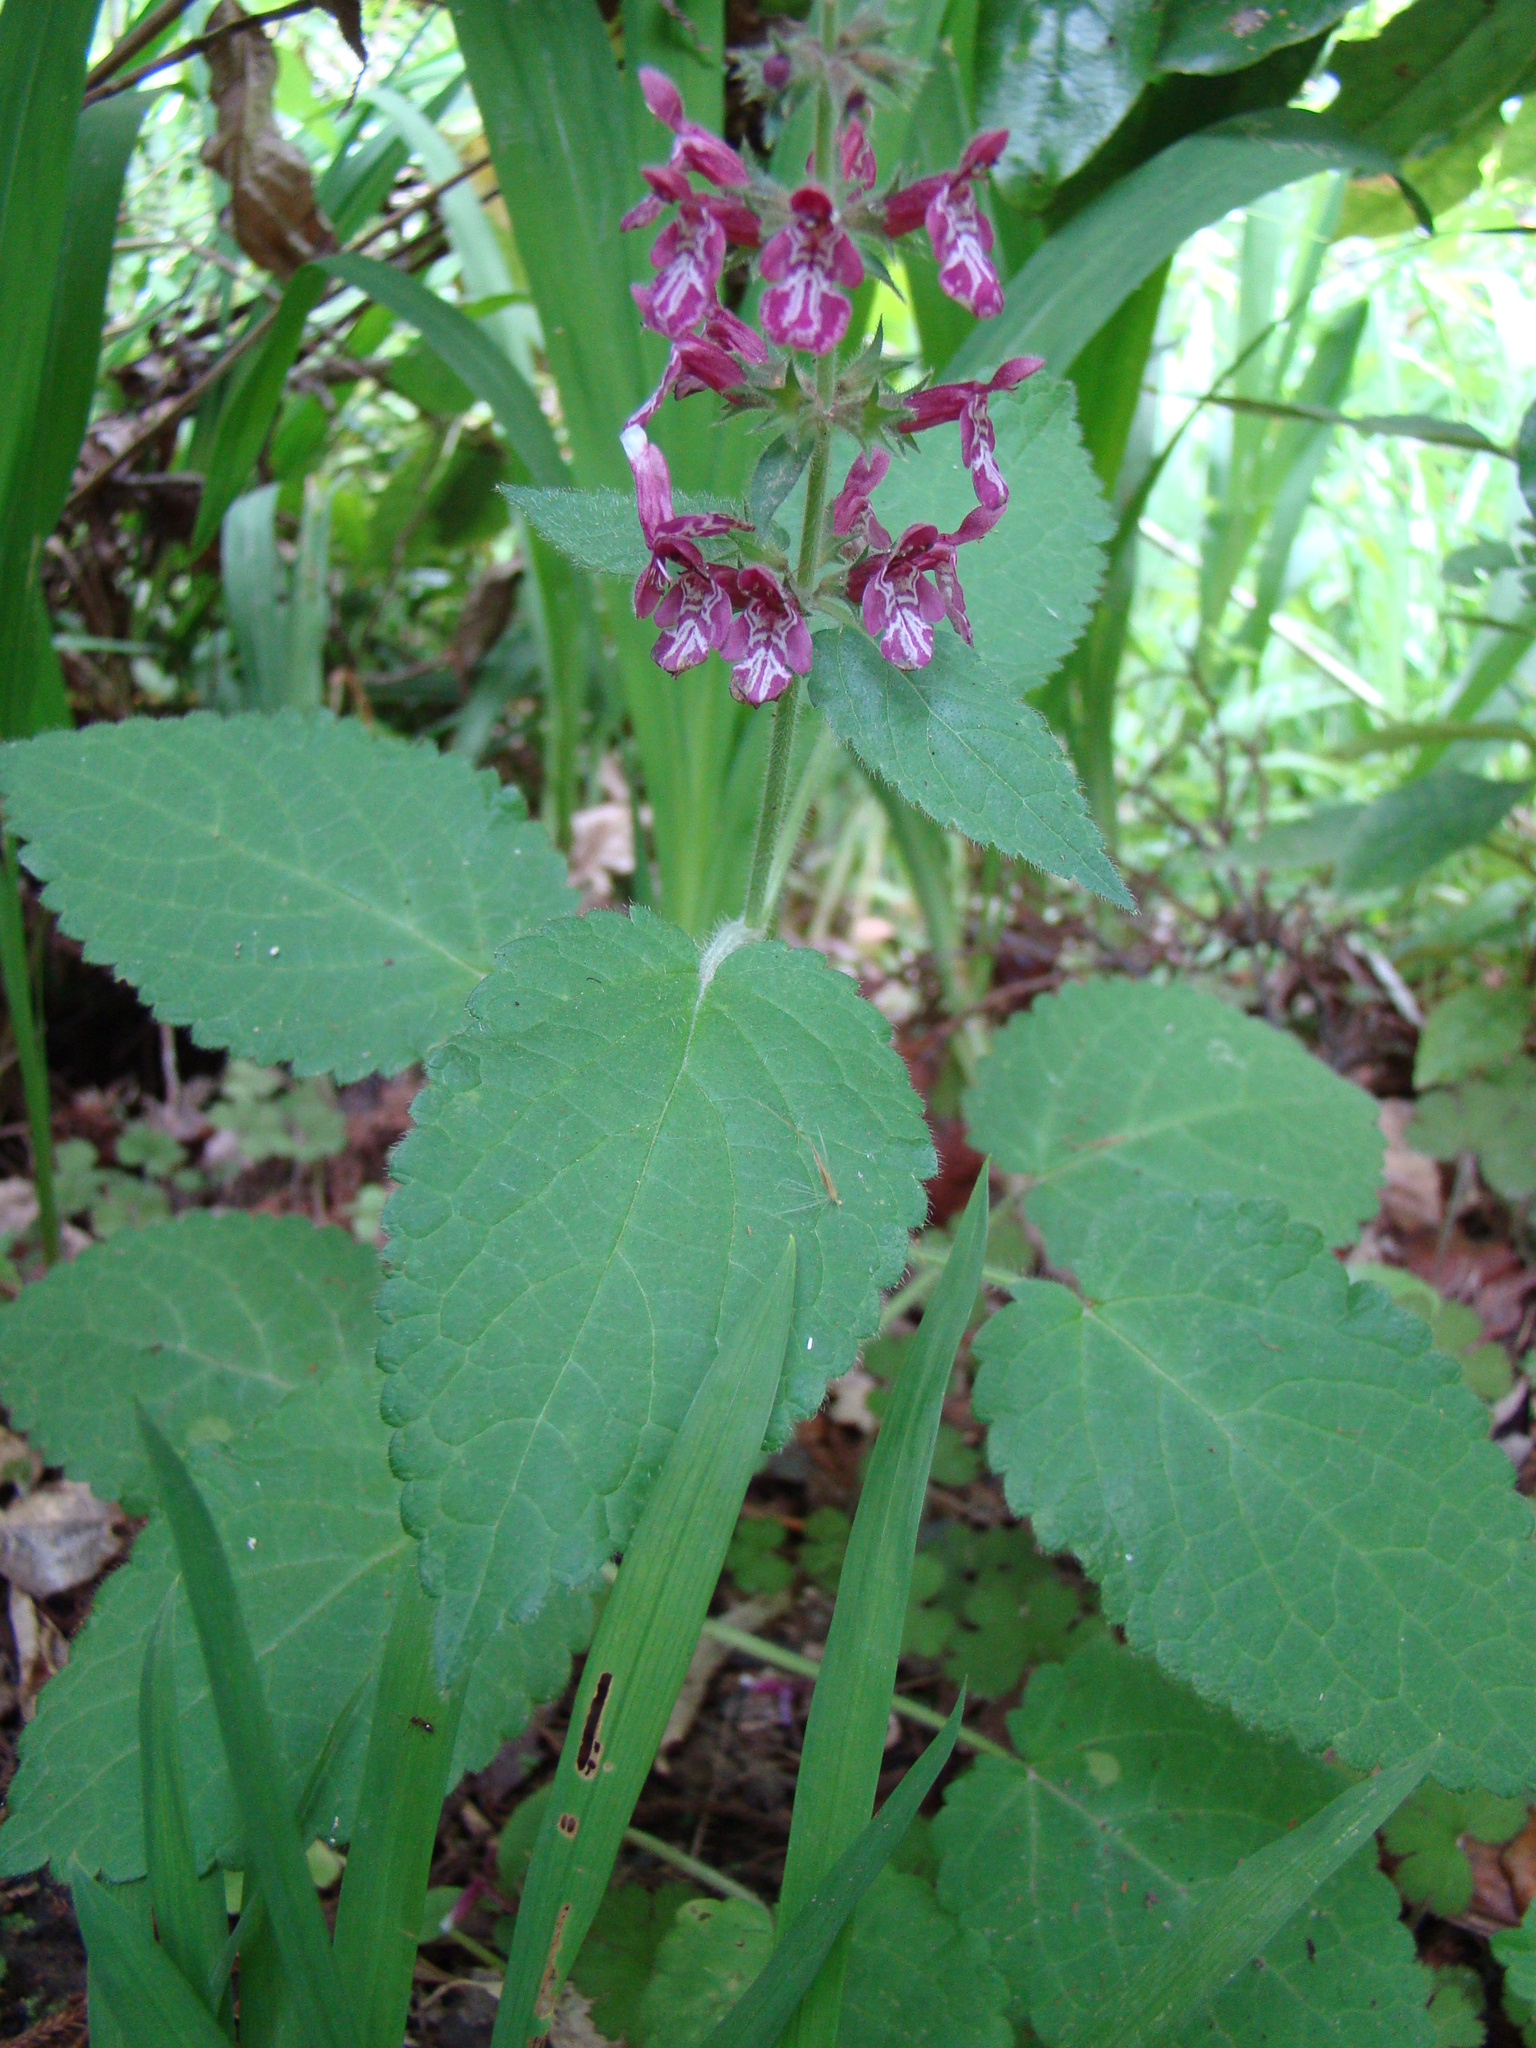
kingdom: Plantae
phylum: Tracheophyta
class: Magnoliopsida
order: Lamiales
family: Lamiaceae
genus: Stachys
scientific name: Stachys sylvatica
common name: Hedge woundwort
